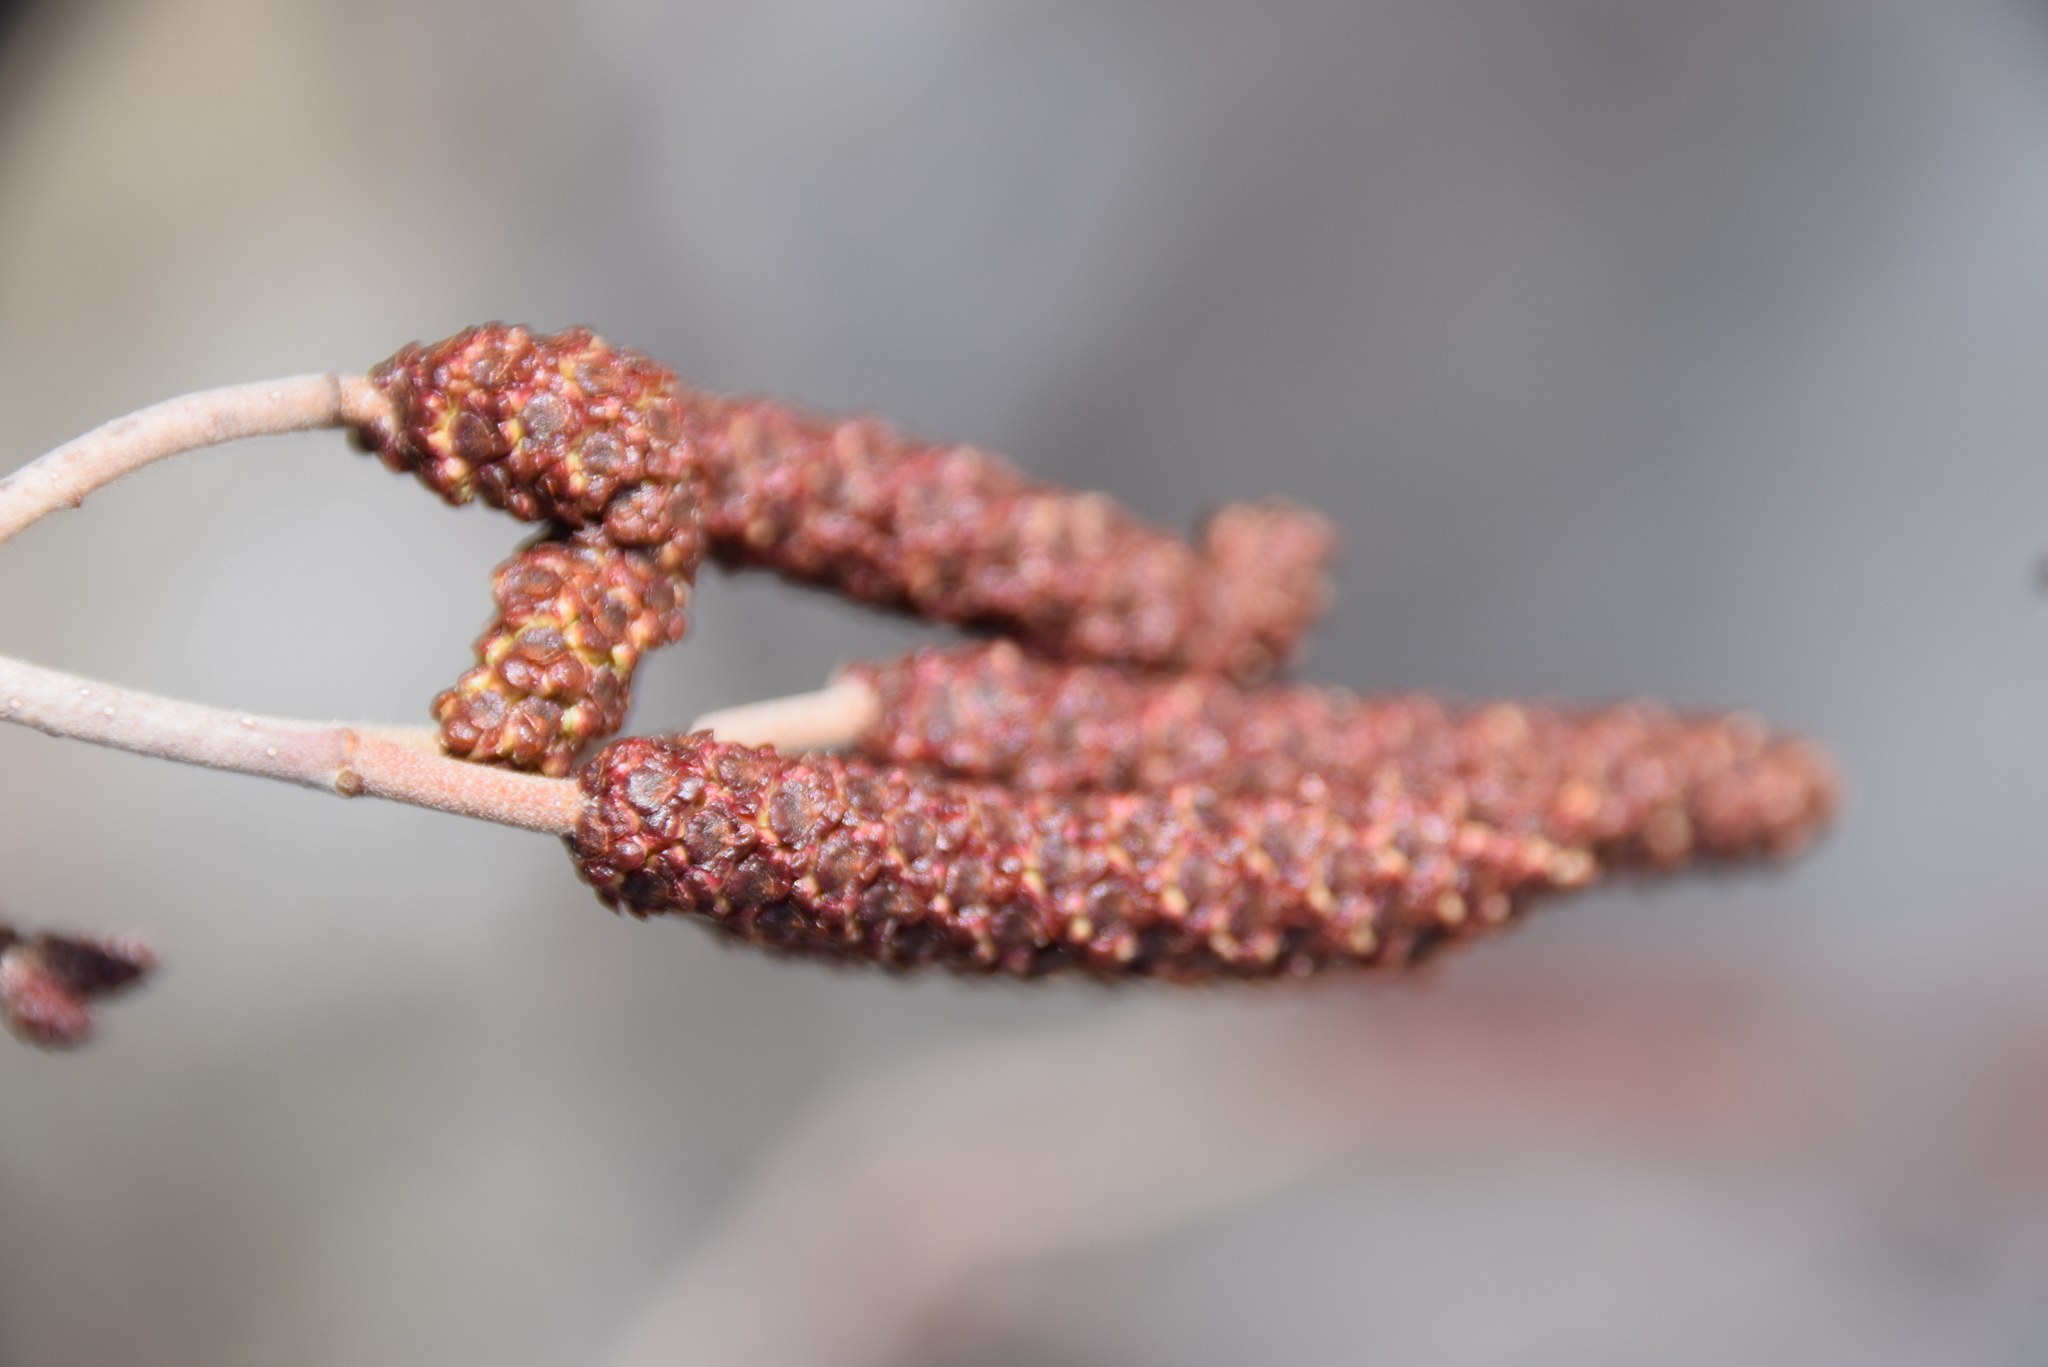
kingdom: Plantae
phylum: Tracheophyta
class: Magnoliopsida
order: Fagales
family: Betulaceae
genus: Alnus
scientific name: Alnus incana
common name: Grey alder
